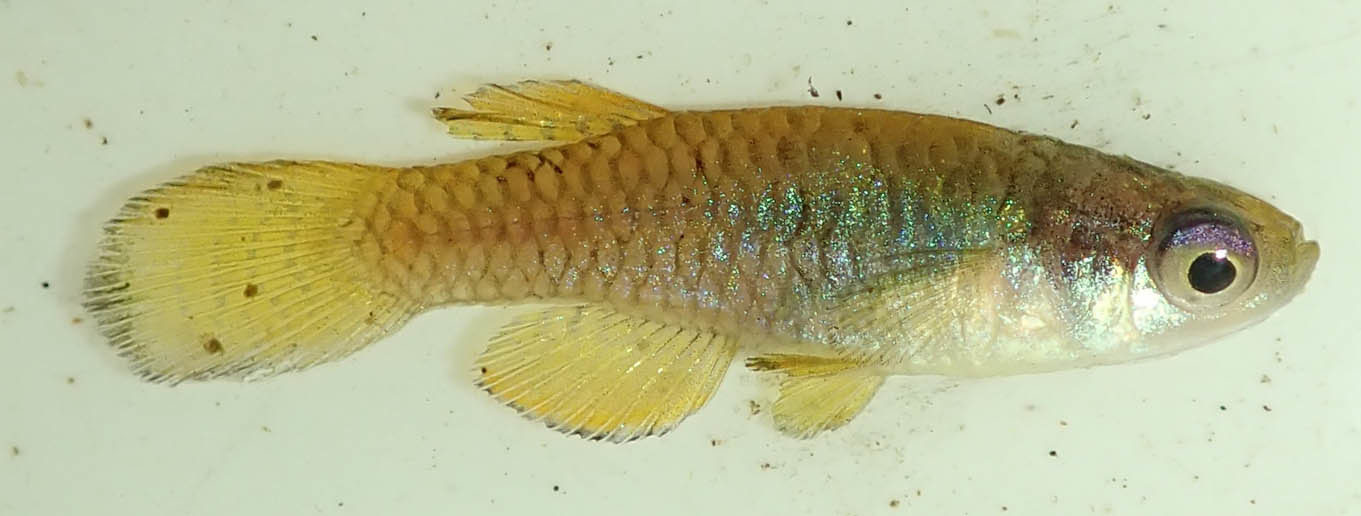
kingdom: Animalia
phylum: Chordata
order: Cyprinodontiformes
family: Poeciliidae
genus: Micropanchax
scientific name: Micropanchax hutereaui
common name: Meshscaled topminnow
